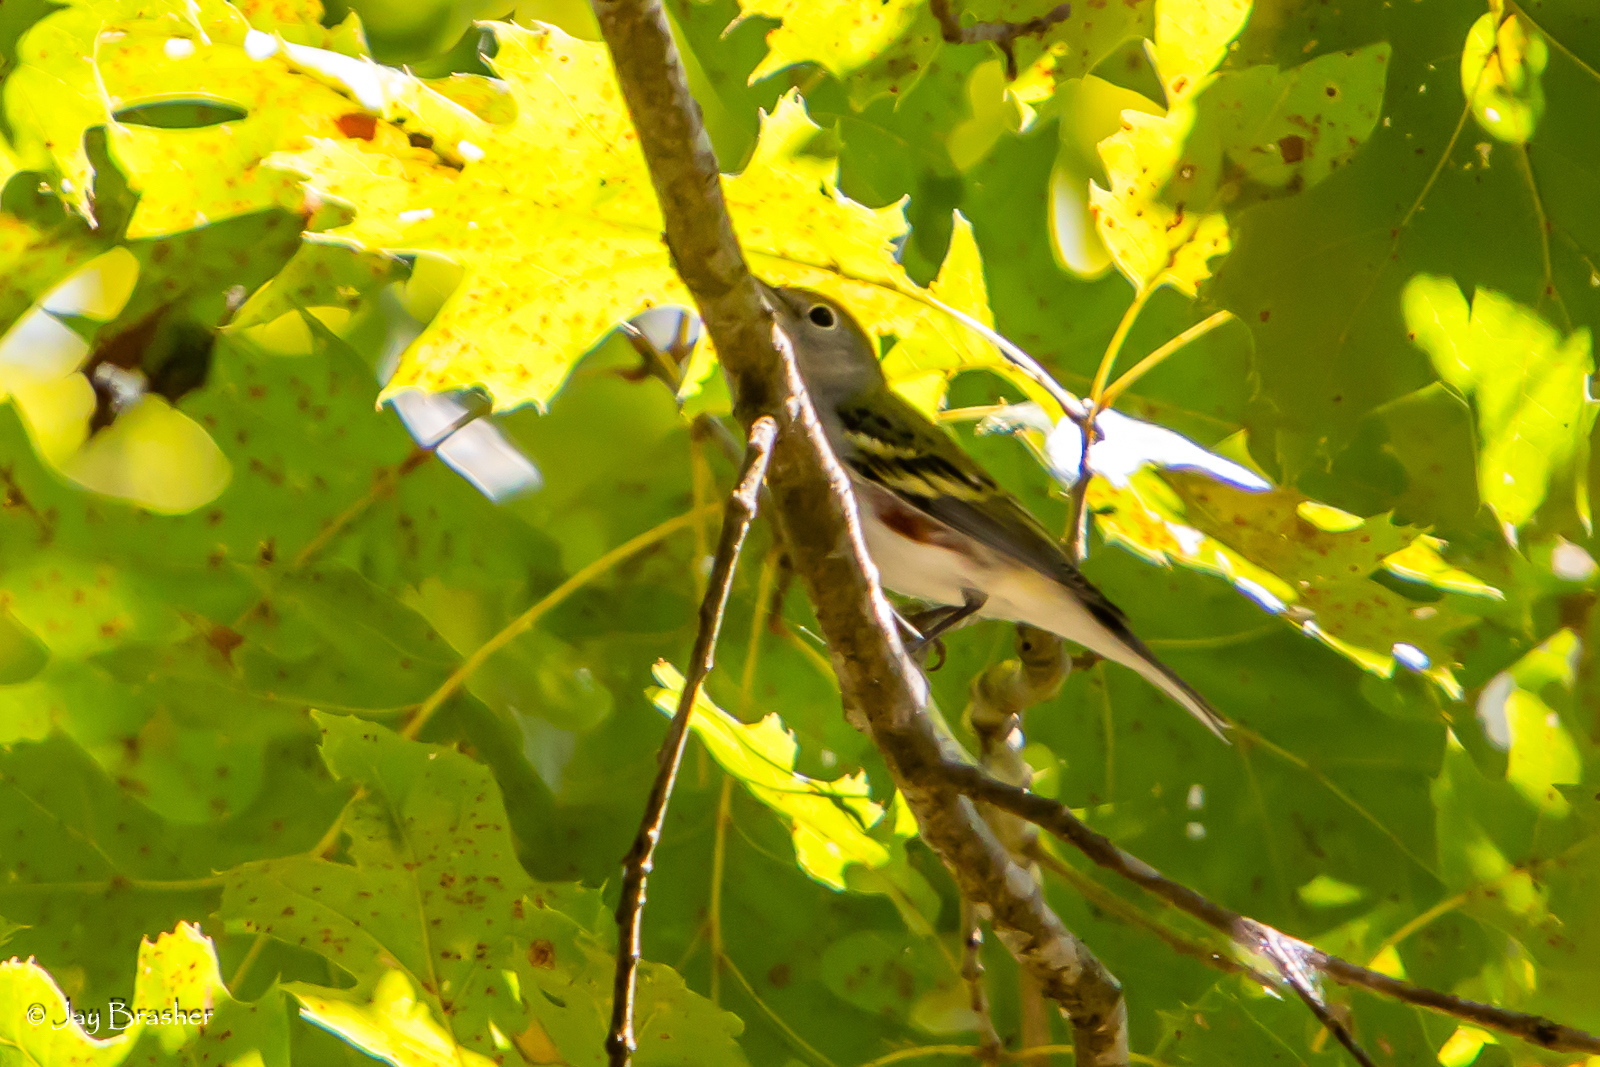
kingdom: Animalia
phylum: Chordata
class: Aves
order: Passeriformes
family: Parulidae
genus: Setophaga
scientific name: Setophaga pensylvanica
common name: Chestnut-sided warbler
